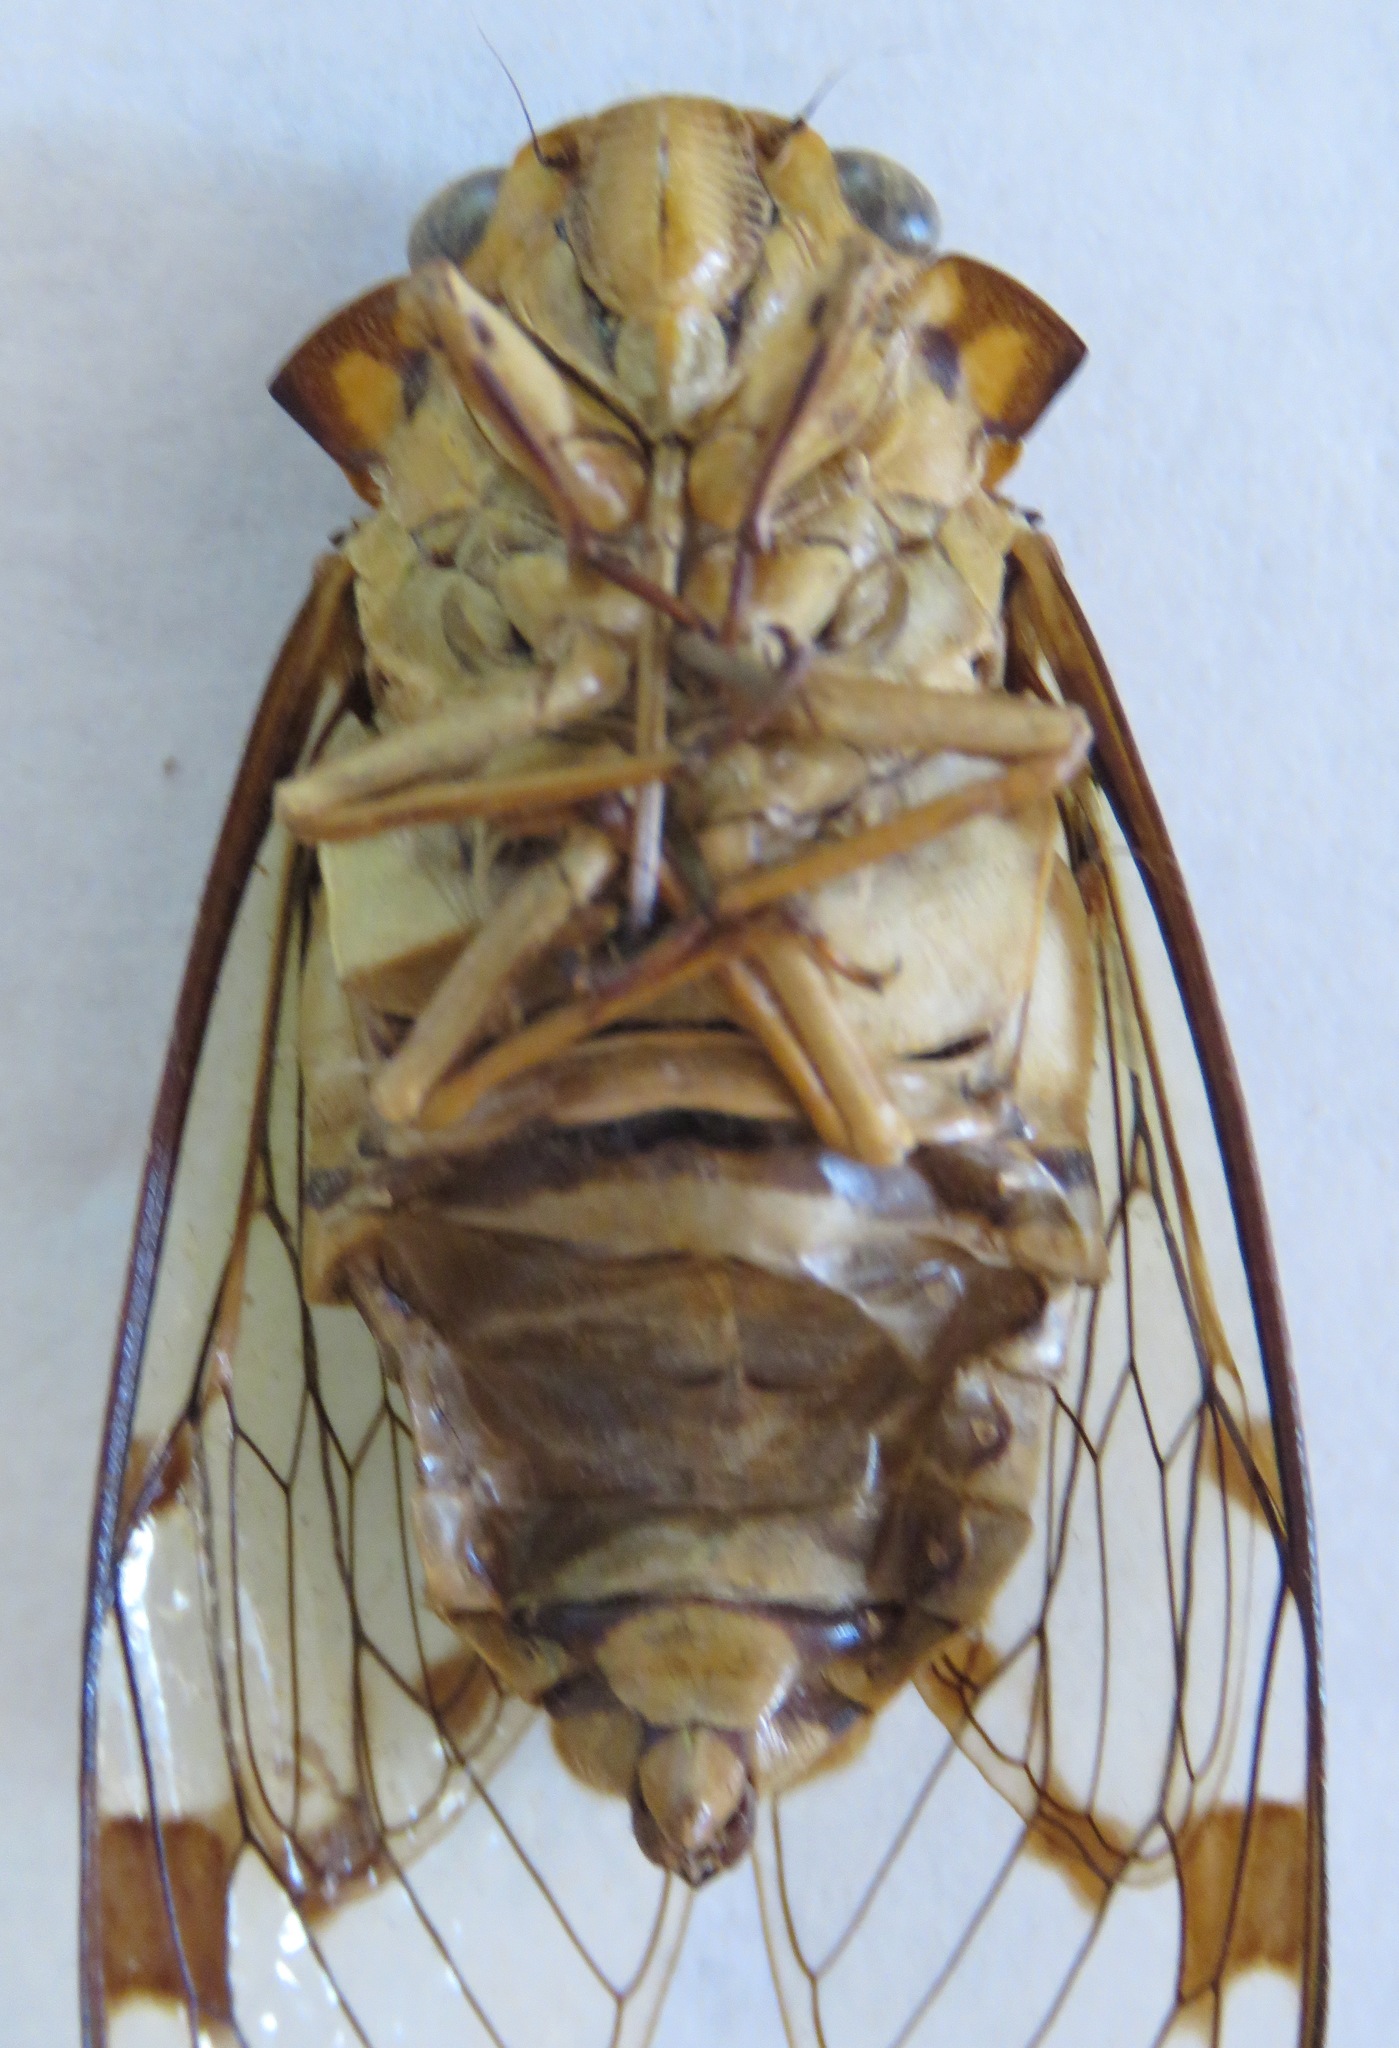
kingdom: Animalia
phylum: Arthropoda
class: Insecta
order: Hemiptera
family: Cicadidae
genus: Zammara
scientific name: Zammara smaragdina
